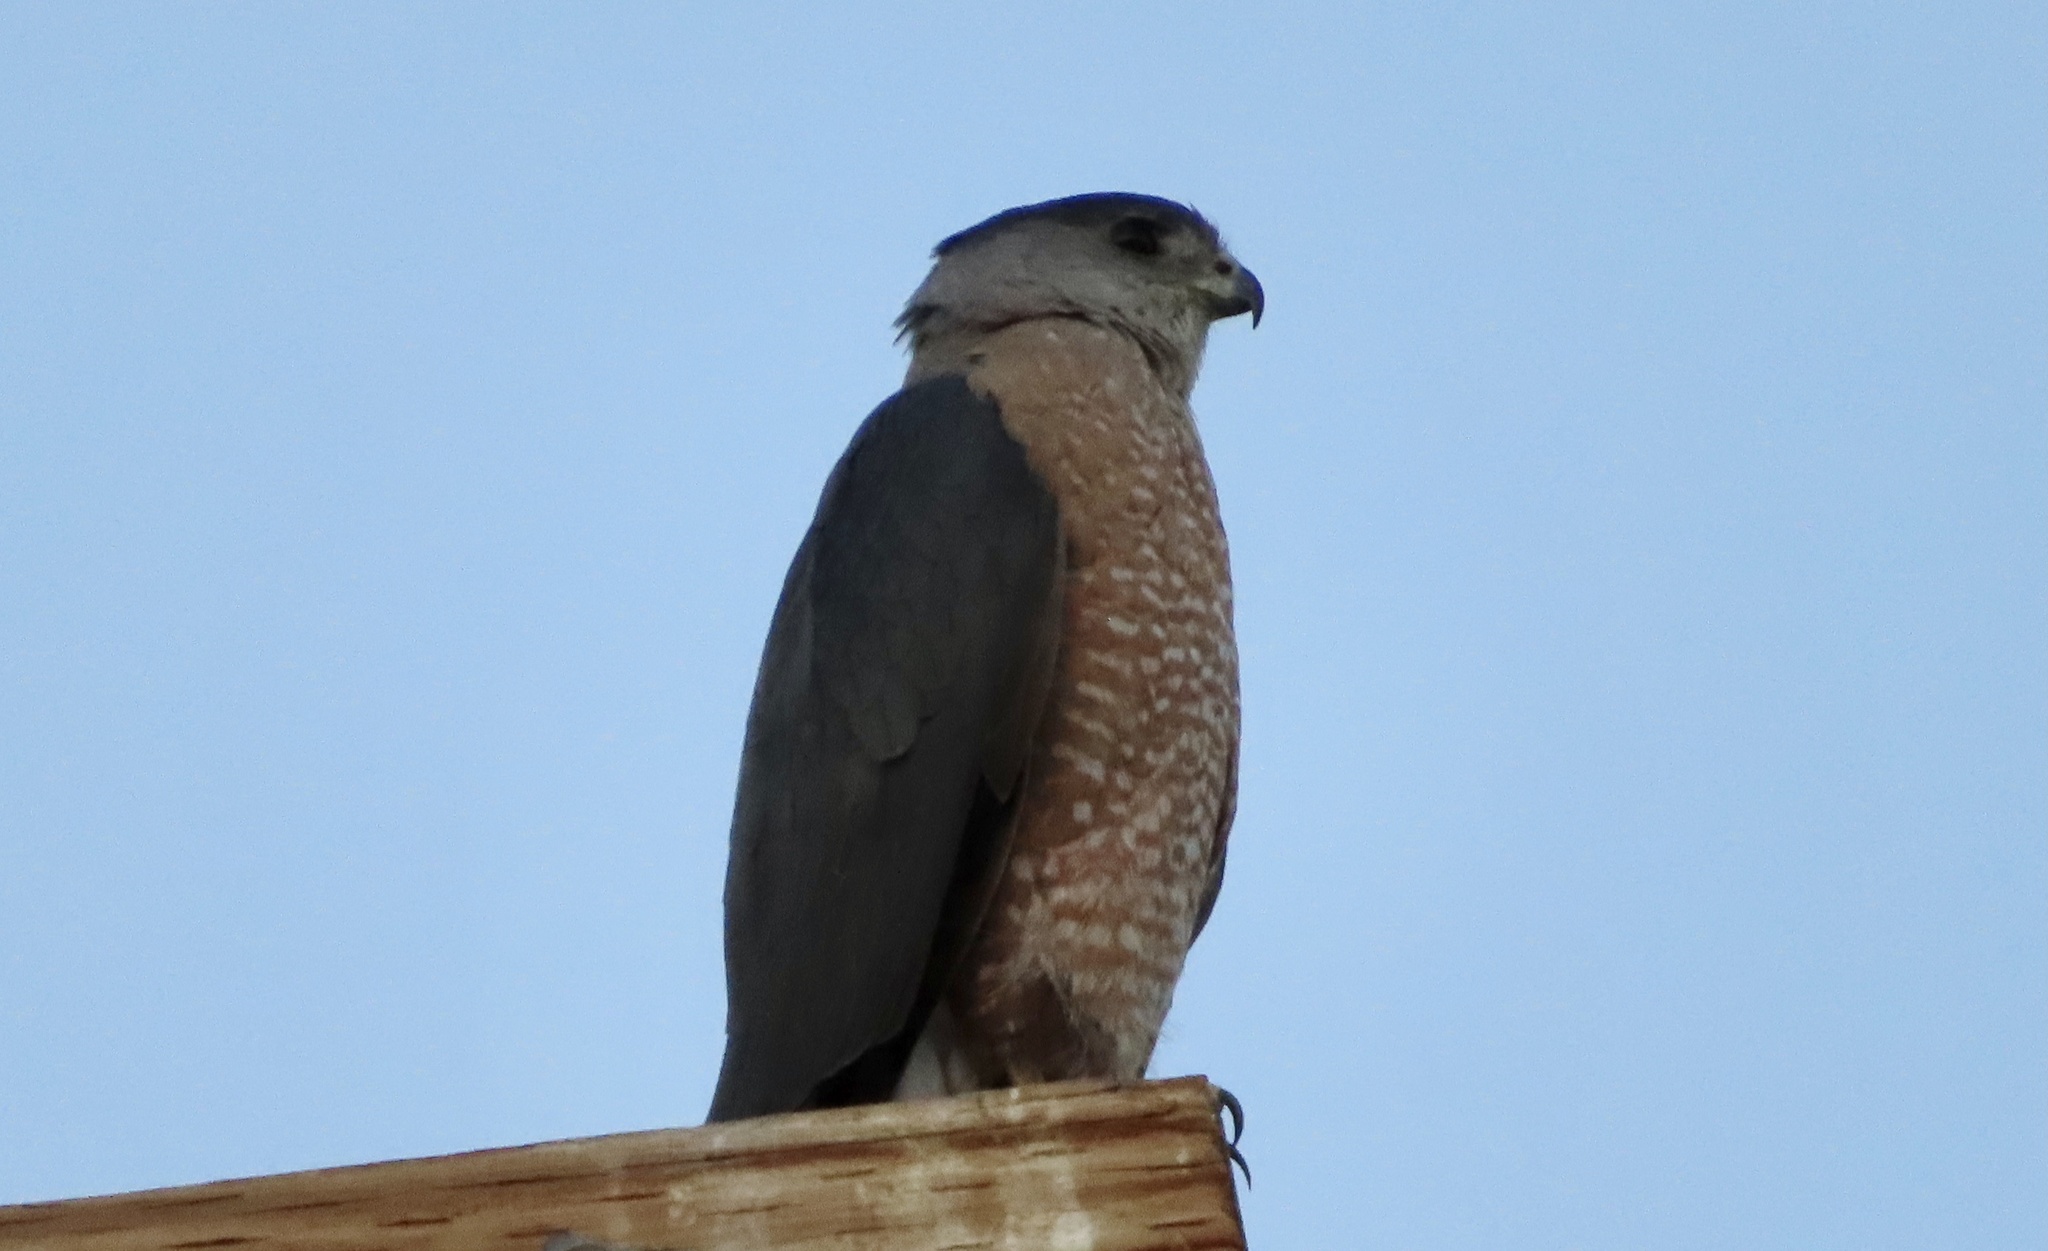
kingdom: Animalia
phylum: Chordata
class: Aves
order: Accipitriformes
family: Accipitridae
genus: Accipiter
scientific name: Accipiter cooperii
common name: Cooper's hawk
